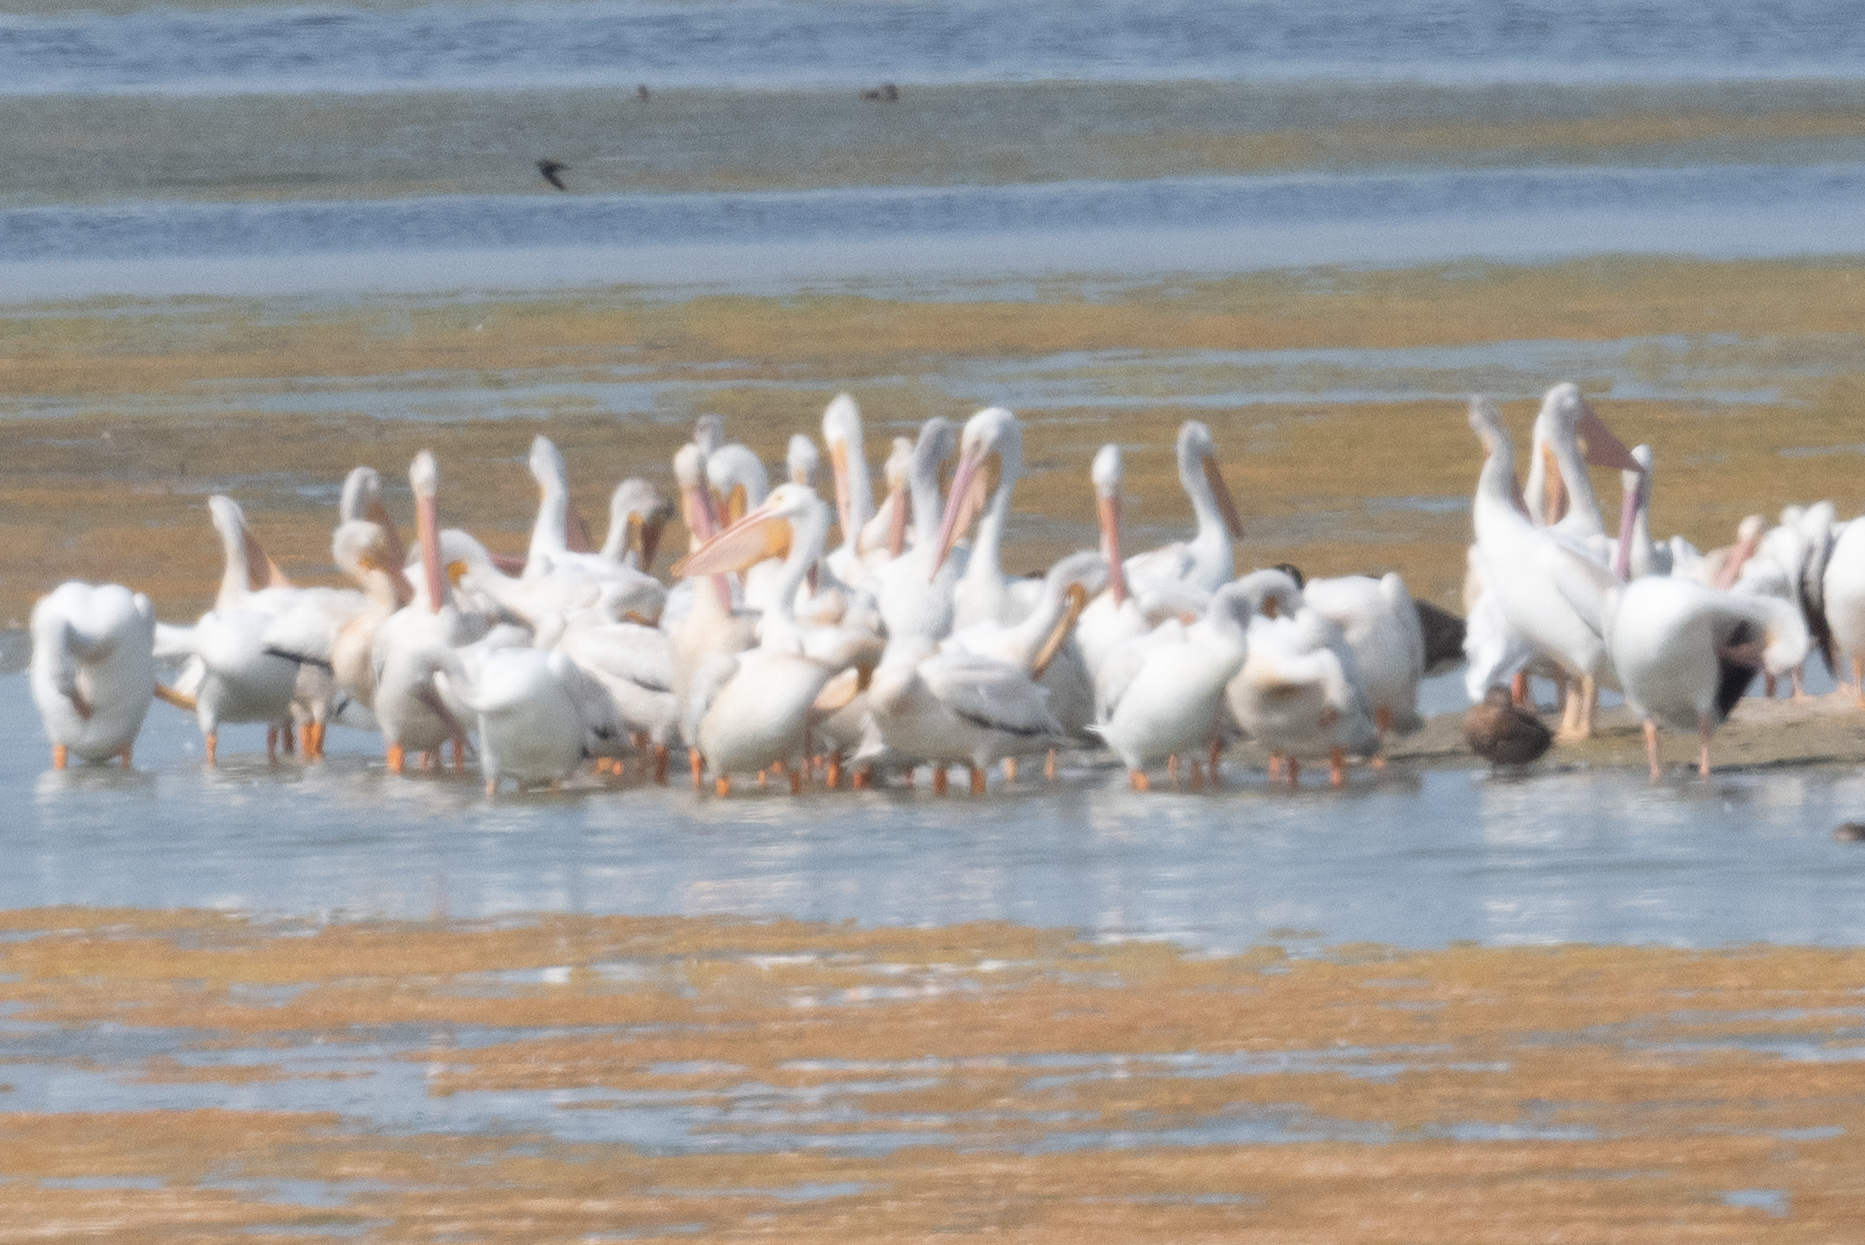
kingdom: Animalia
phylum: Chordata
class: Aves
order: Pelecaniformes
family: Pelecanidae
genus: Pelecanus
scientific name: Pelecanus erythrorhynchos
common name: American white pelican
